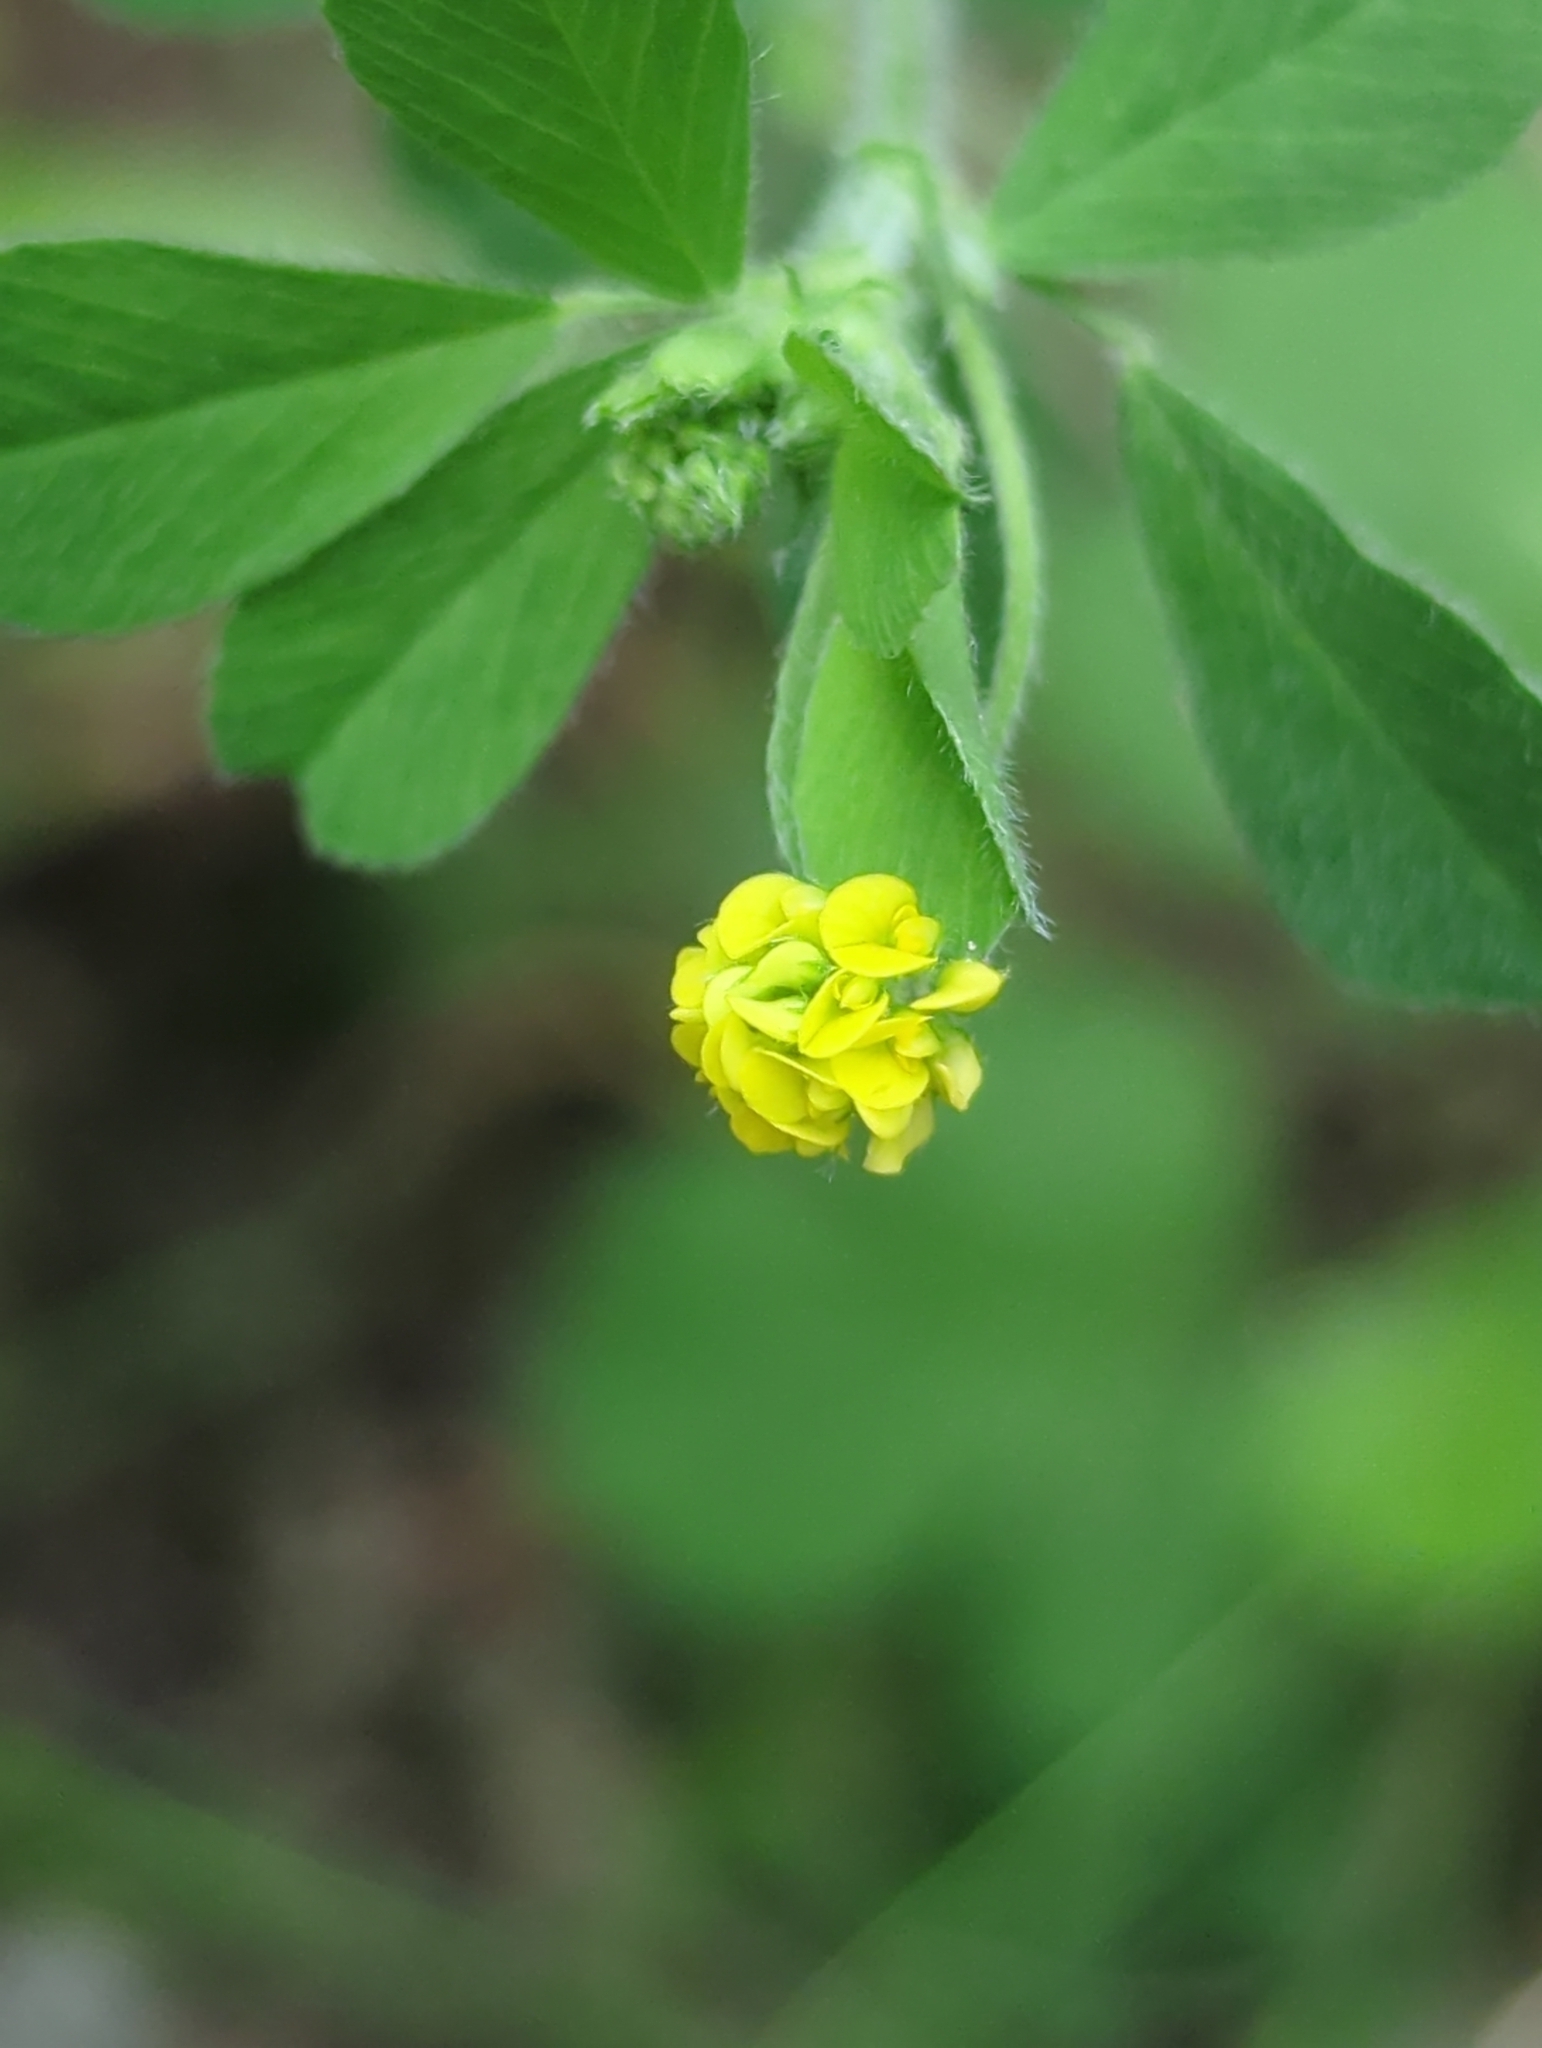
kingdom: Plantae
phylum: Tracheophyta
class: Magnoliopsida
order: Fabales
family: Fabaceae
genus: Medicago
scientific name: Medicago lupulina
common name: Black medick
